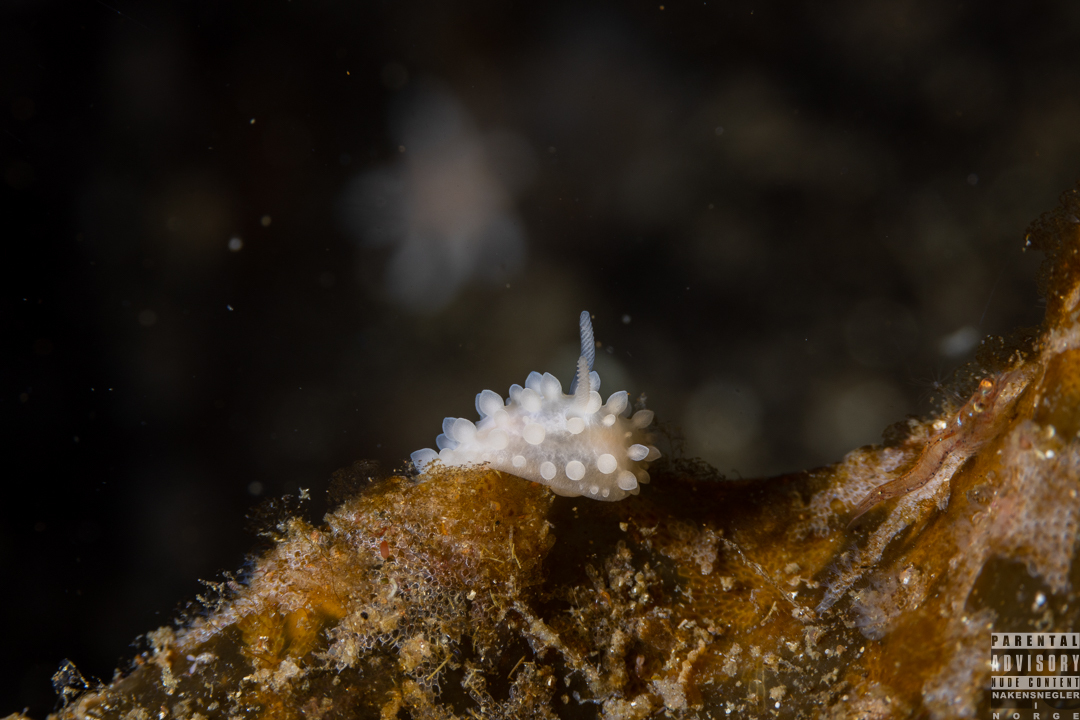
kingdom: Animalia
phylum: Mollusca
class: Gastropoda
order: Nudibranchia
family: Onchidorididae
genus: Adalaria
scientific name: Adalaria loveni
